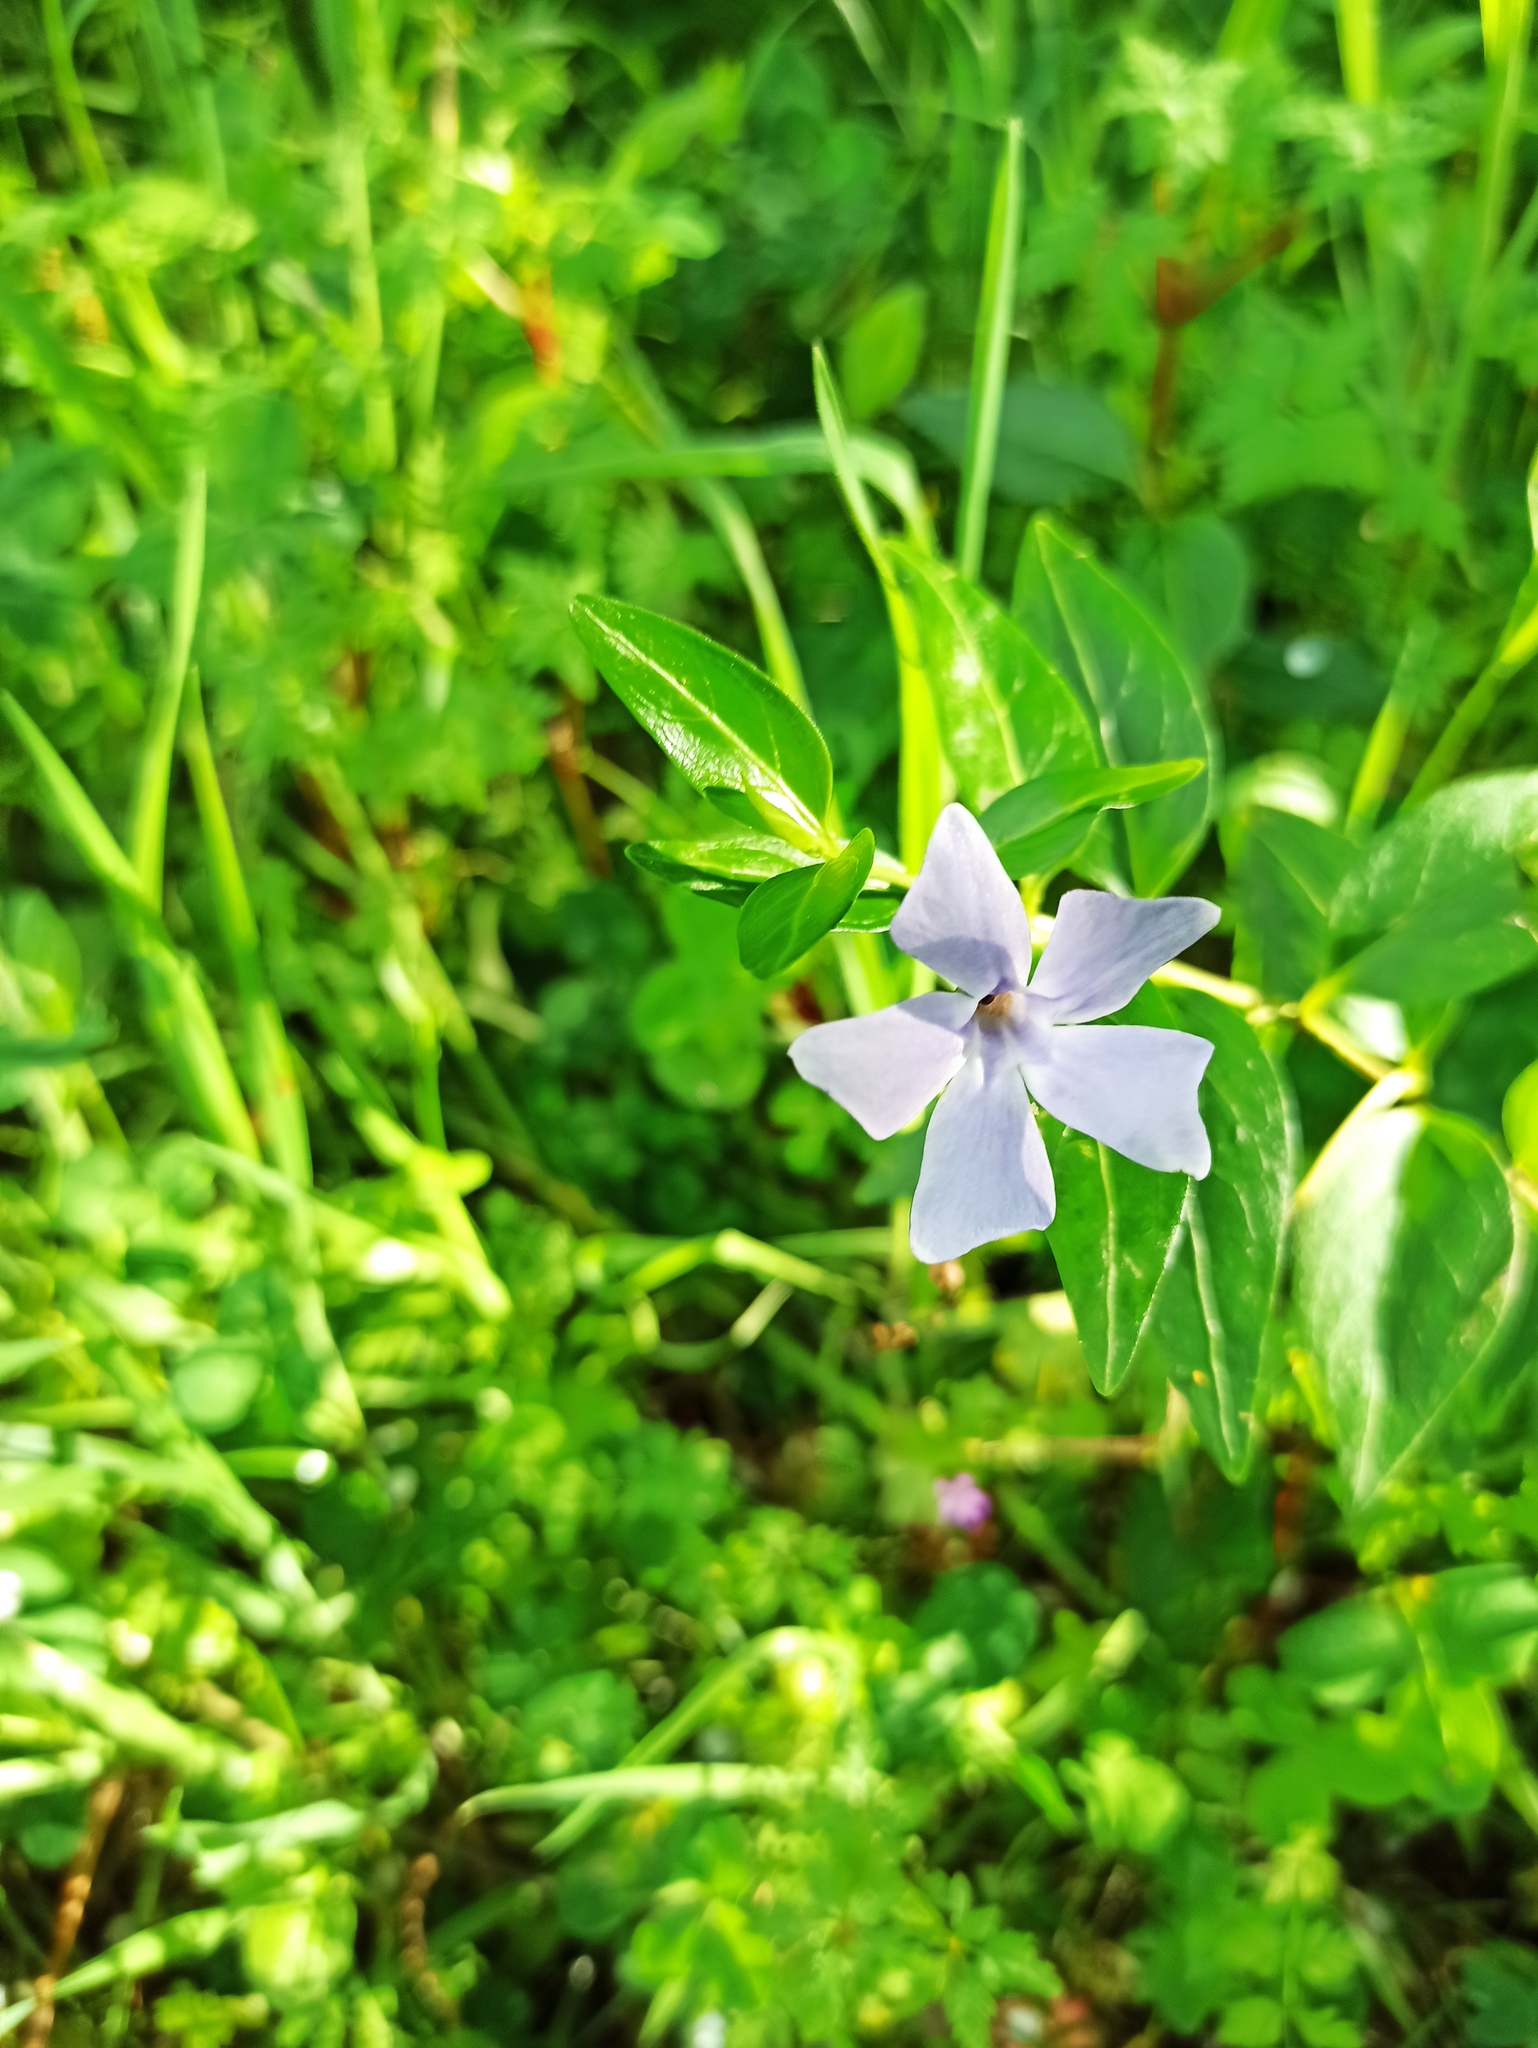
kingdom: Plantae
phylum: Tracheophyta
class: Magnoliopsida
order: Gentianales
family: Apocynaceae
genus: Vinca
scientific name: Vinca difformis
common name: Intermediate periwinkle
